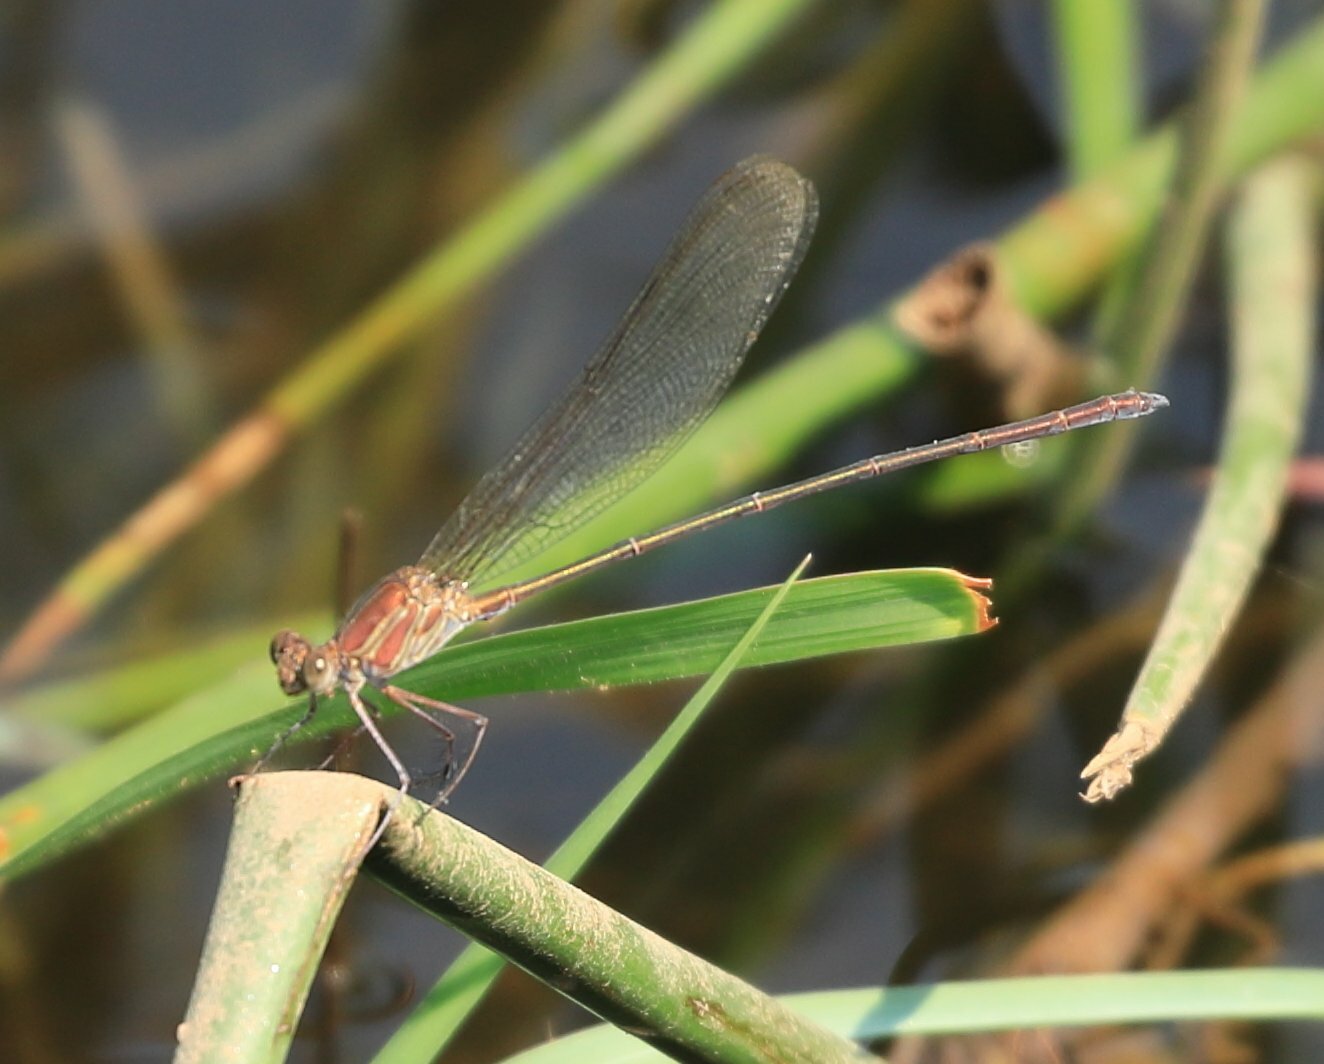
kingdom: Animalia
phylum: Arthropoda
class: Insecta
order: Odonata
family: Calopterygidae
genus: Phaon
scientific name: Phaon iridipennis
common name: Glistening demoiselle
